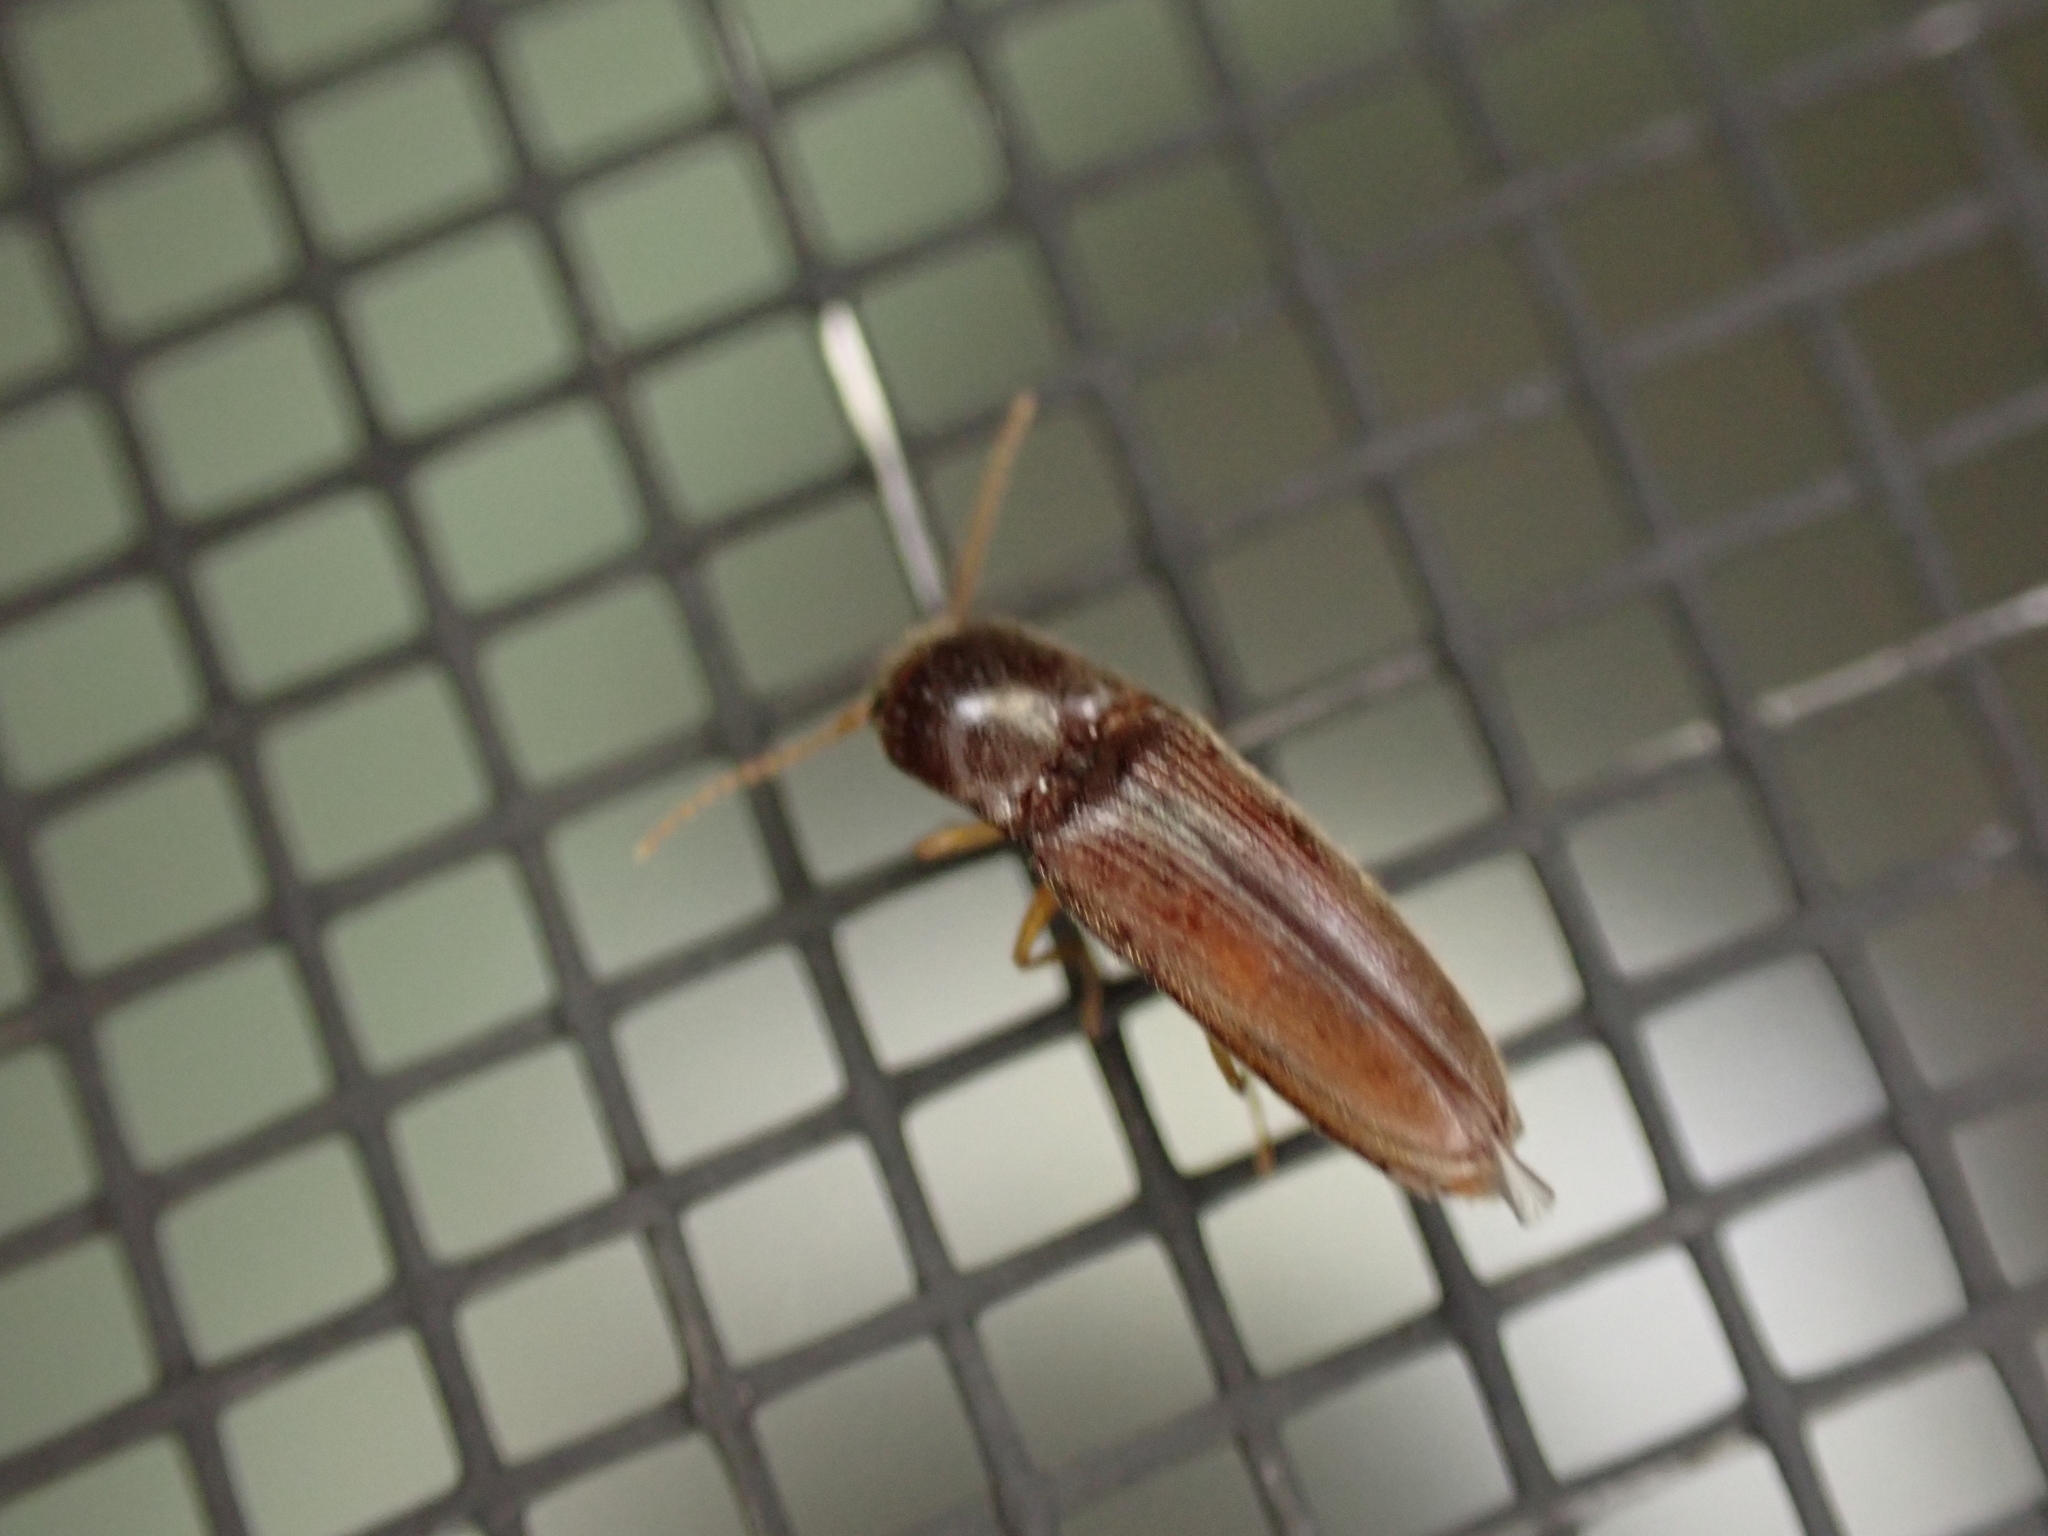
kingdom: Animalia
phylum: Arthropoda
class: Insecta
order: Coleoptera
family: Elateridae
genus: Glyphonyx
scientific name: Glyphonyx
